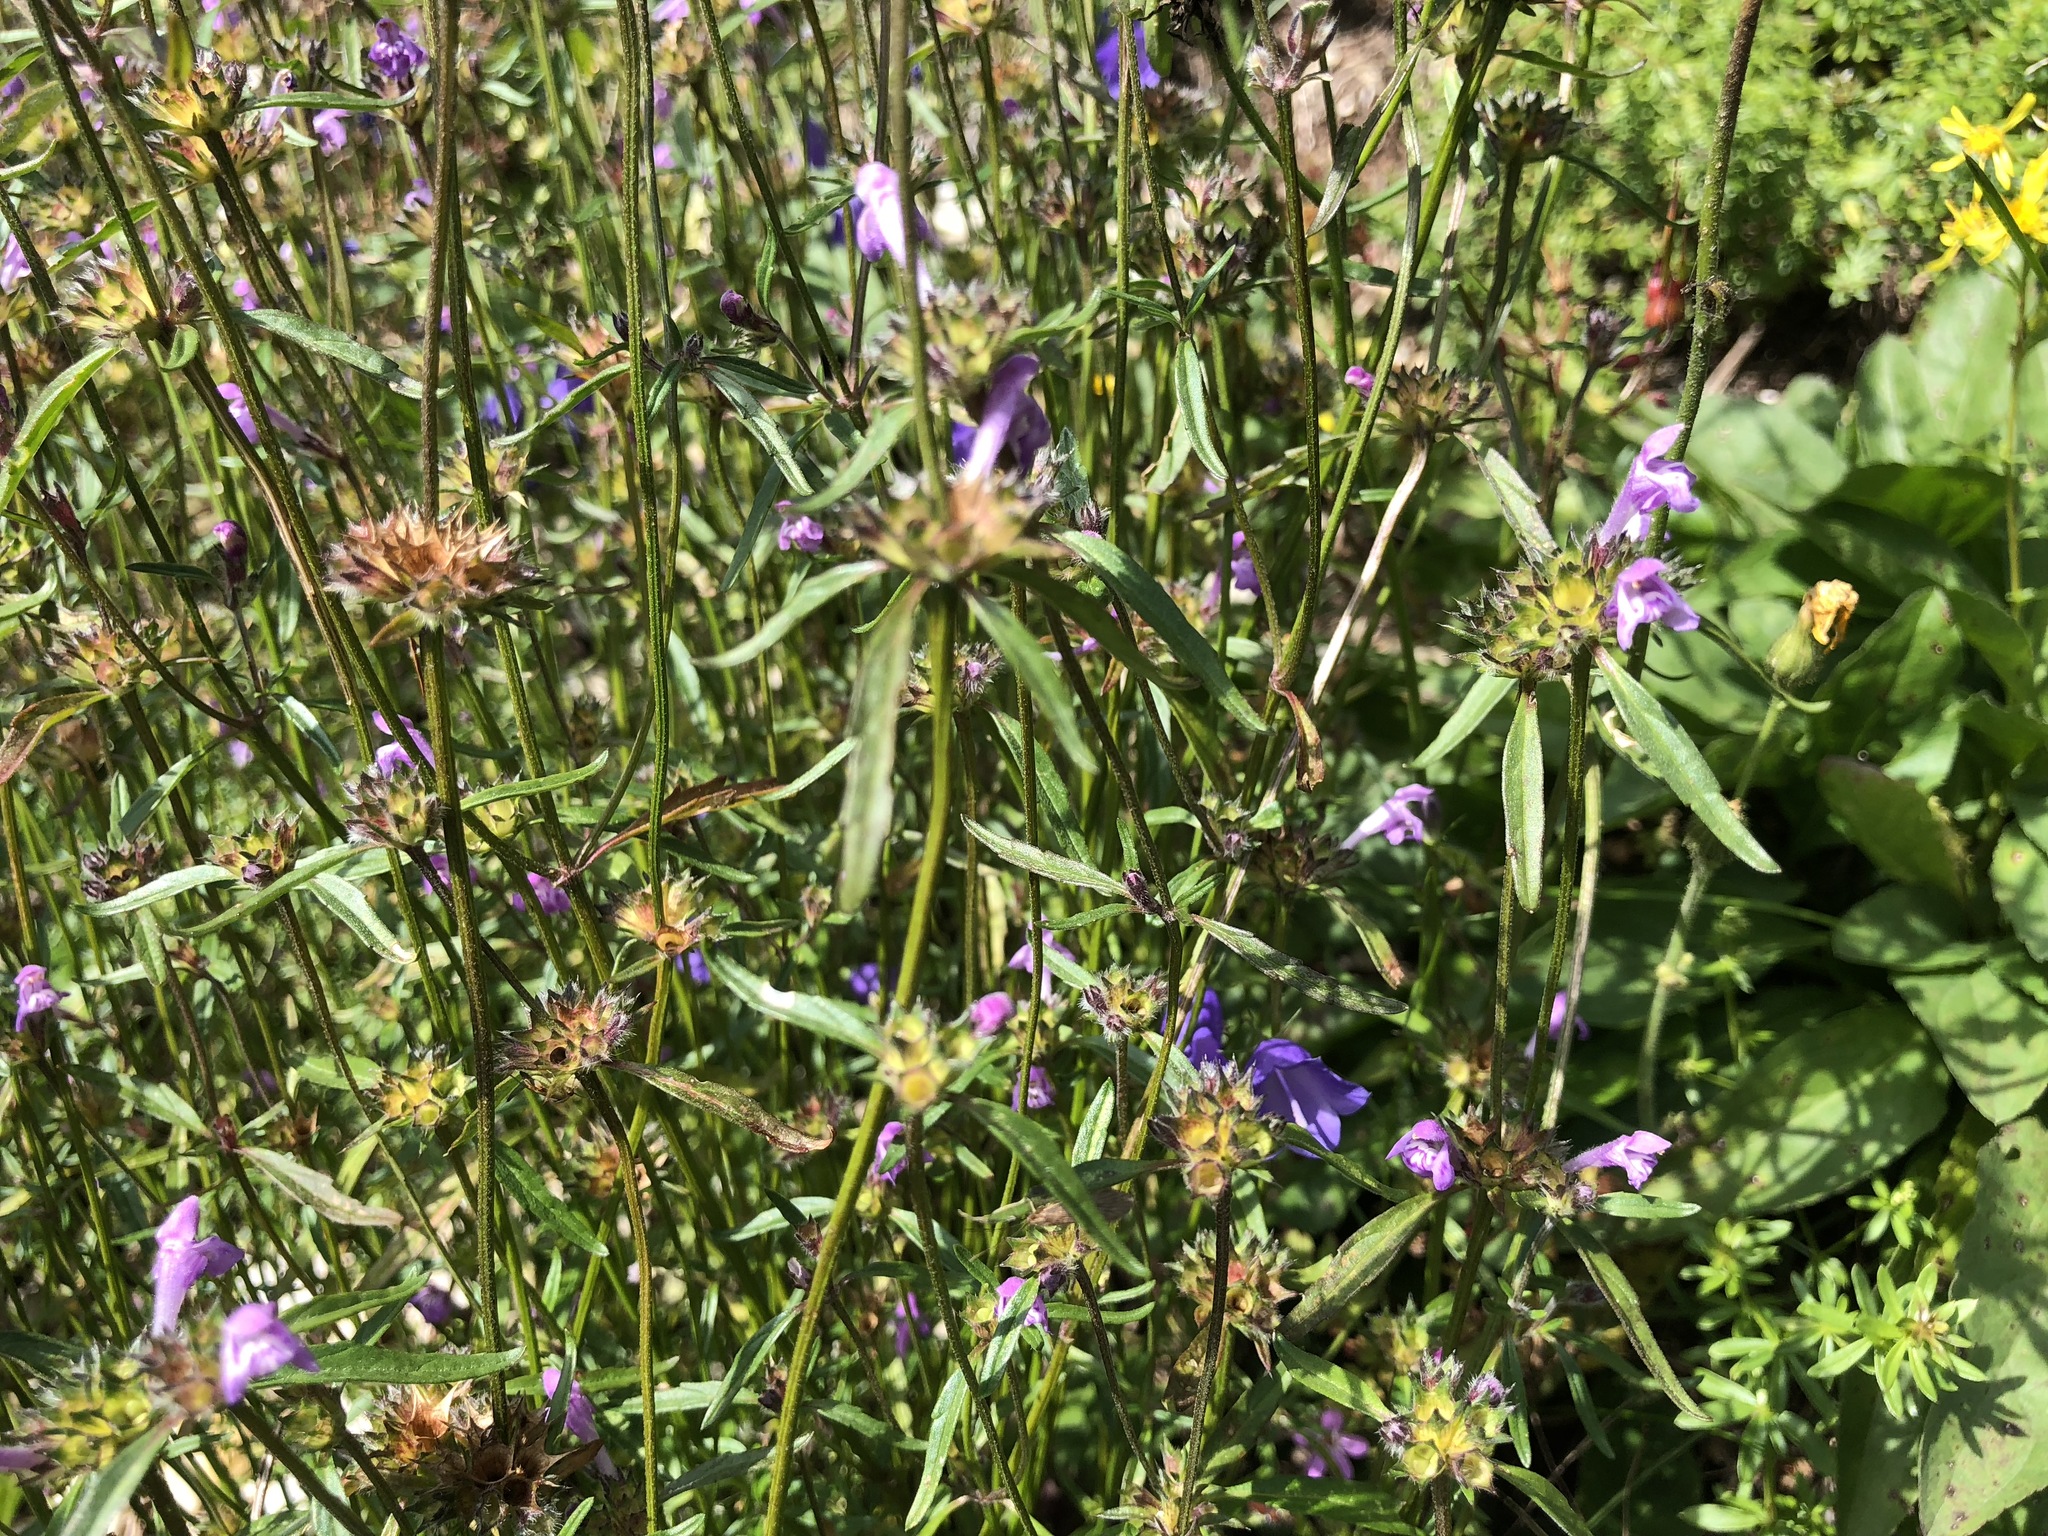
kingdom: Plantae
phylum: Tracheophyta
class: Magnoliopsida
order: Lamiales
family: Lamiaceae
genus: Galeopsis
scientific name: Galeopsis angustifolia
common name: Red hemp-nettle
